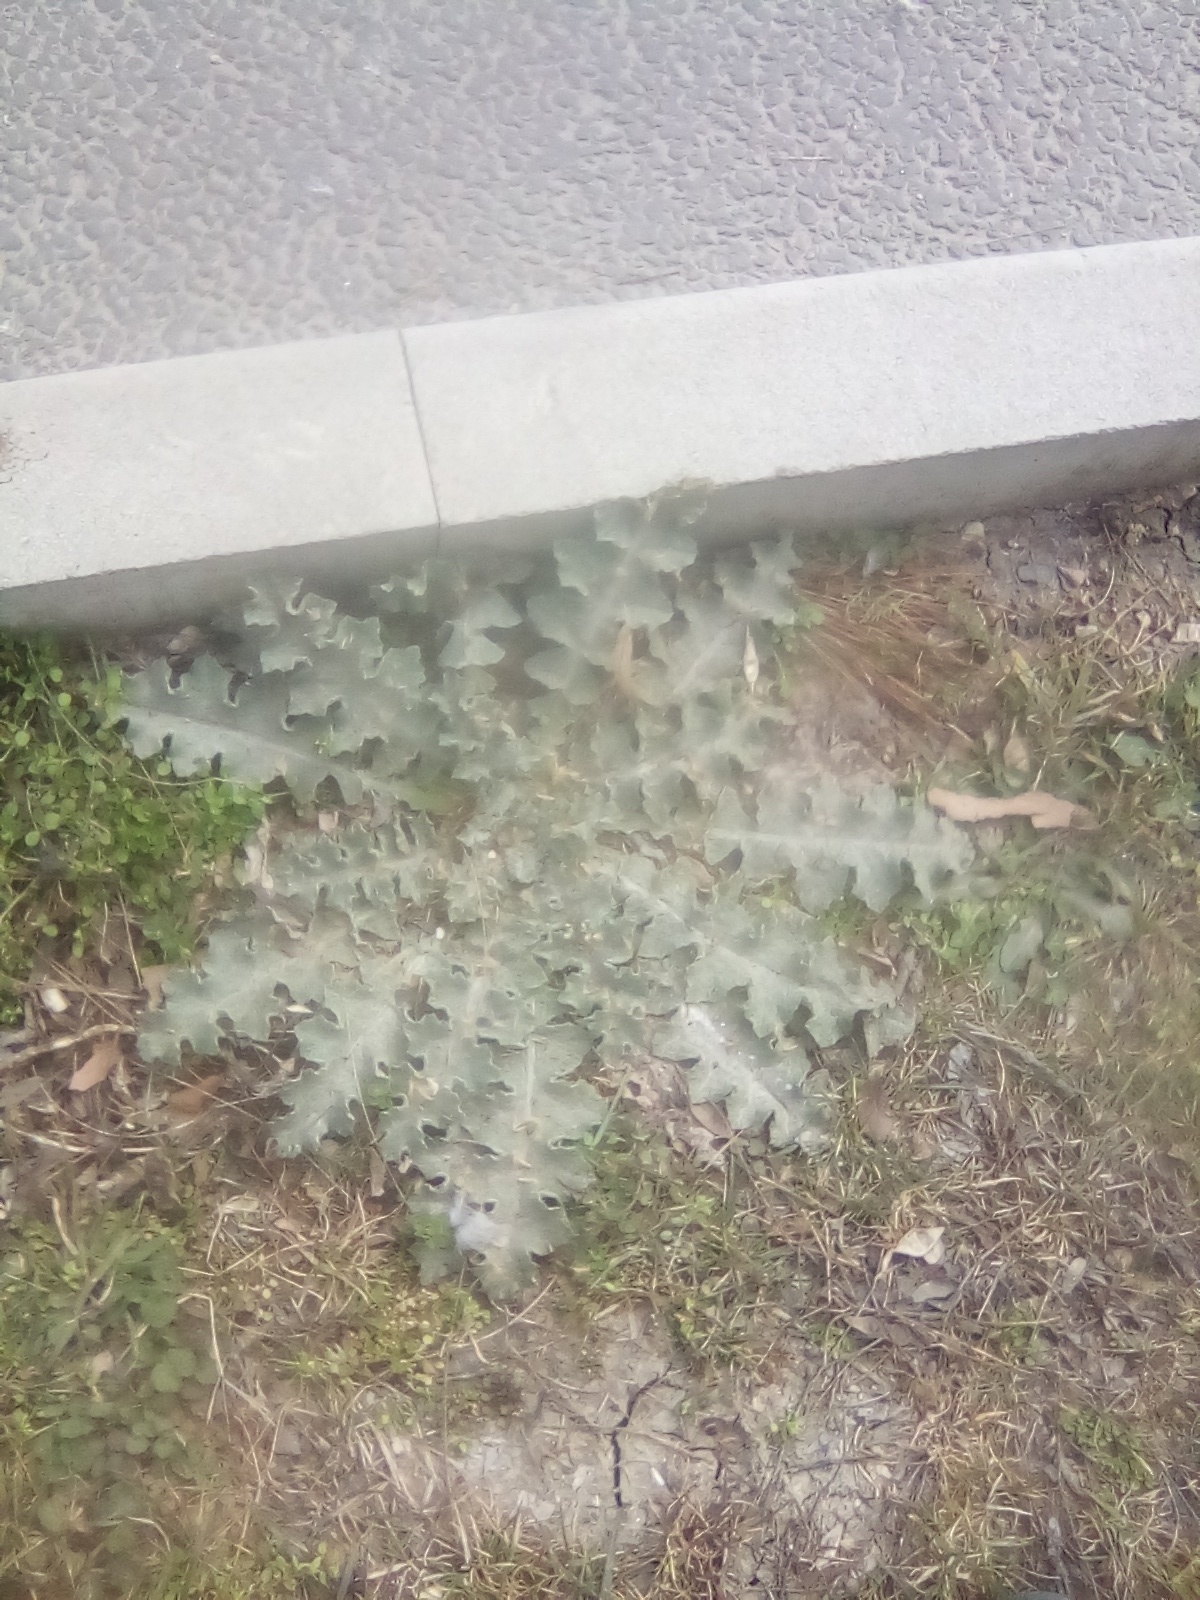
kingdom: Plantae
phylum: Tracheophyta
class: Magnoliopsida
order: Asterales
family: Asteraceae
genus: Onopordum
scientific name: Onopordum acanthium
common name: Scotch thistle
